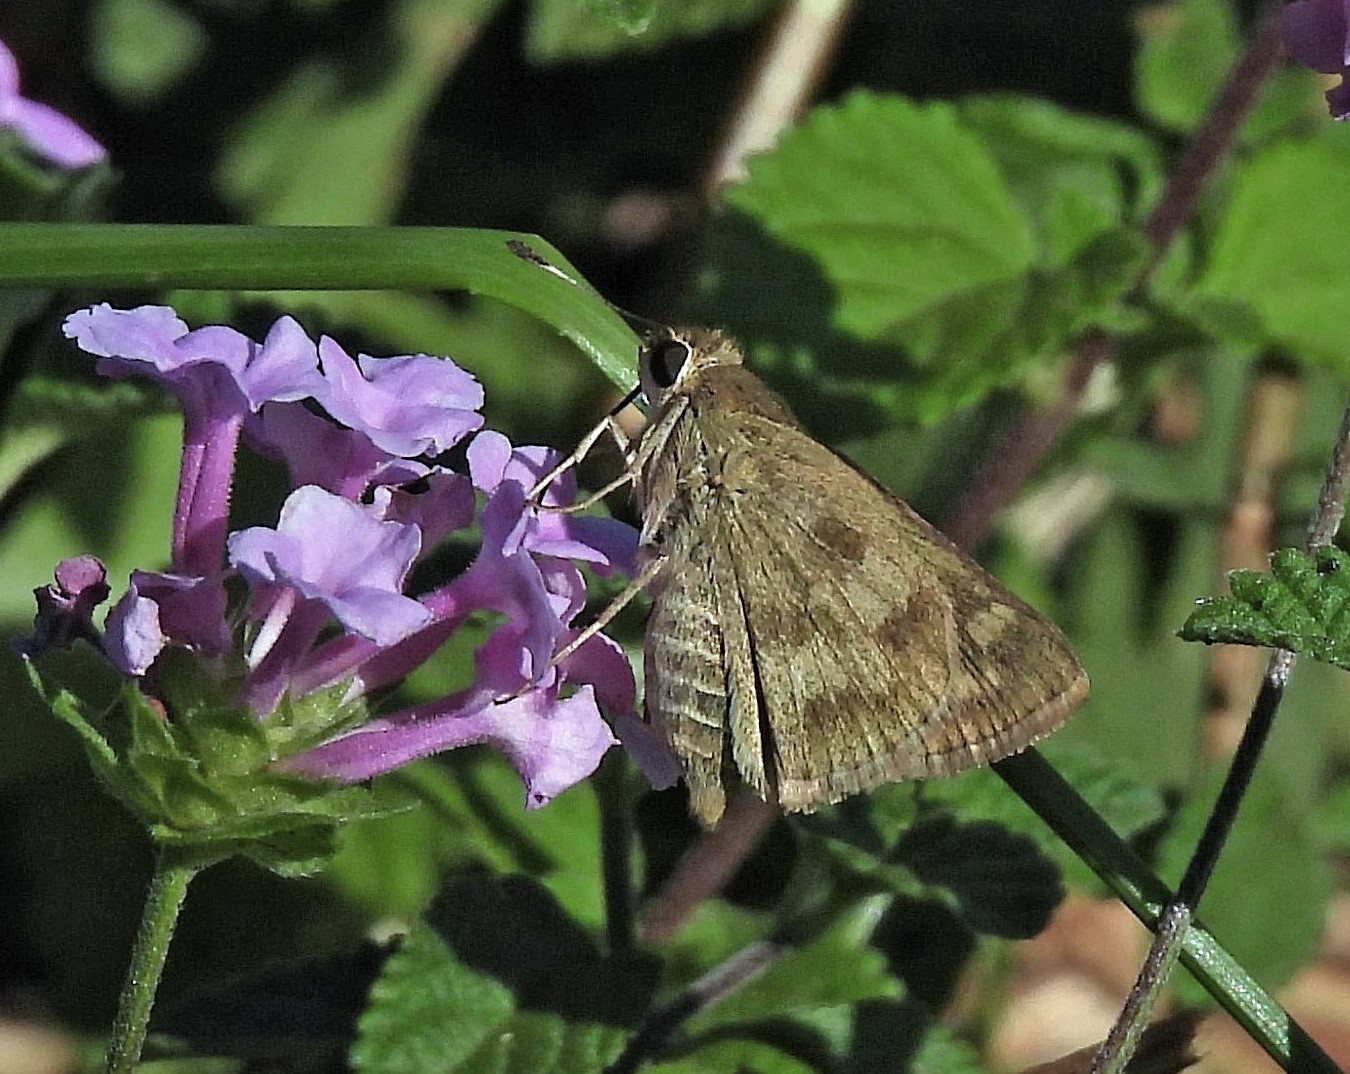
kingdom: Animalia
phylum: Arthropoda
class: Insecta
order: Lepidoptera
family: Hesperiidae
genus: Polites
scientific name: Polites vibex
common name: Whirlabout
